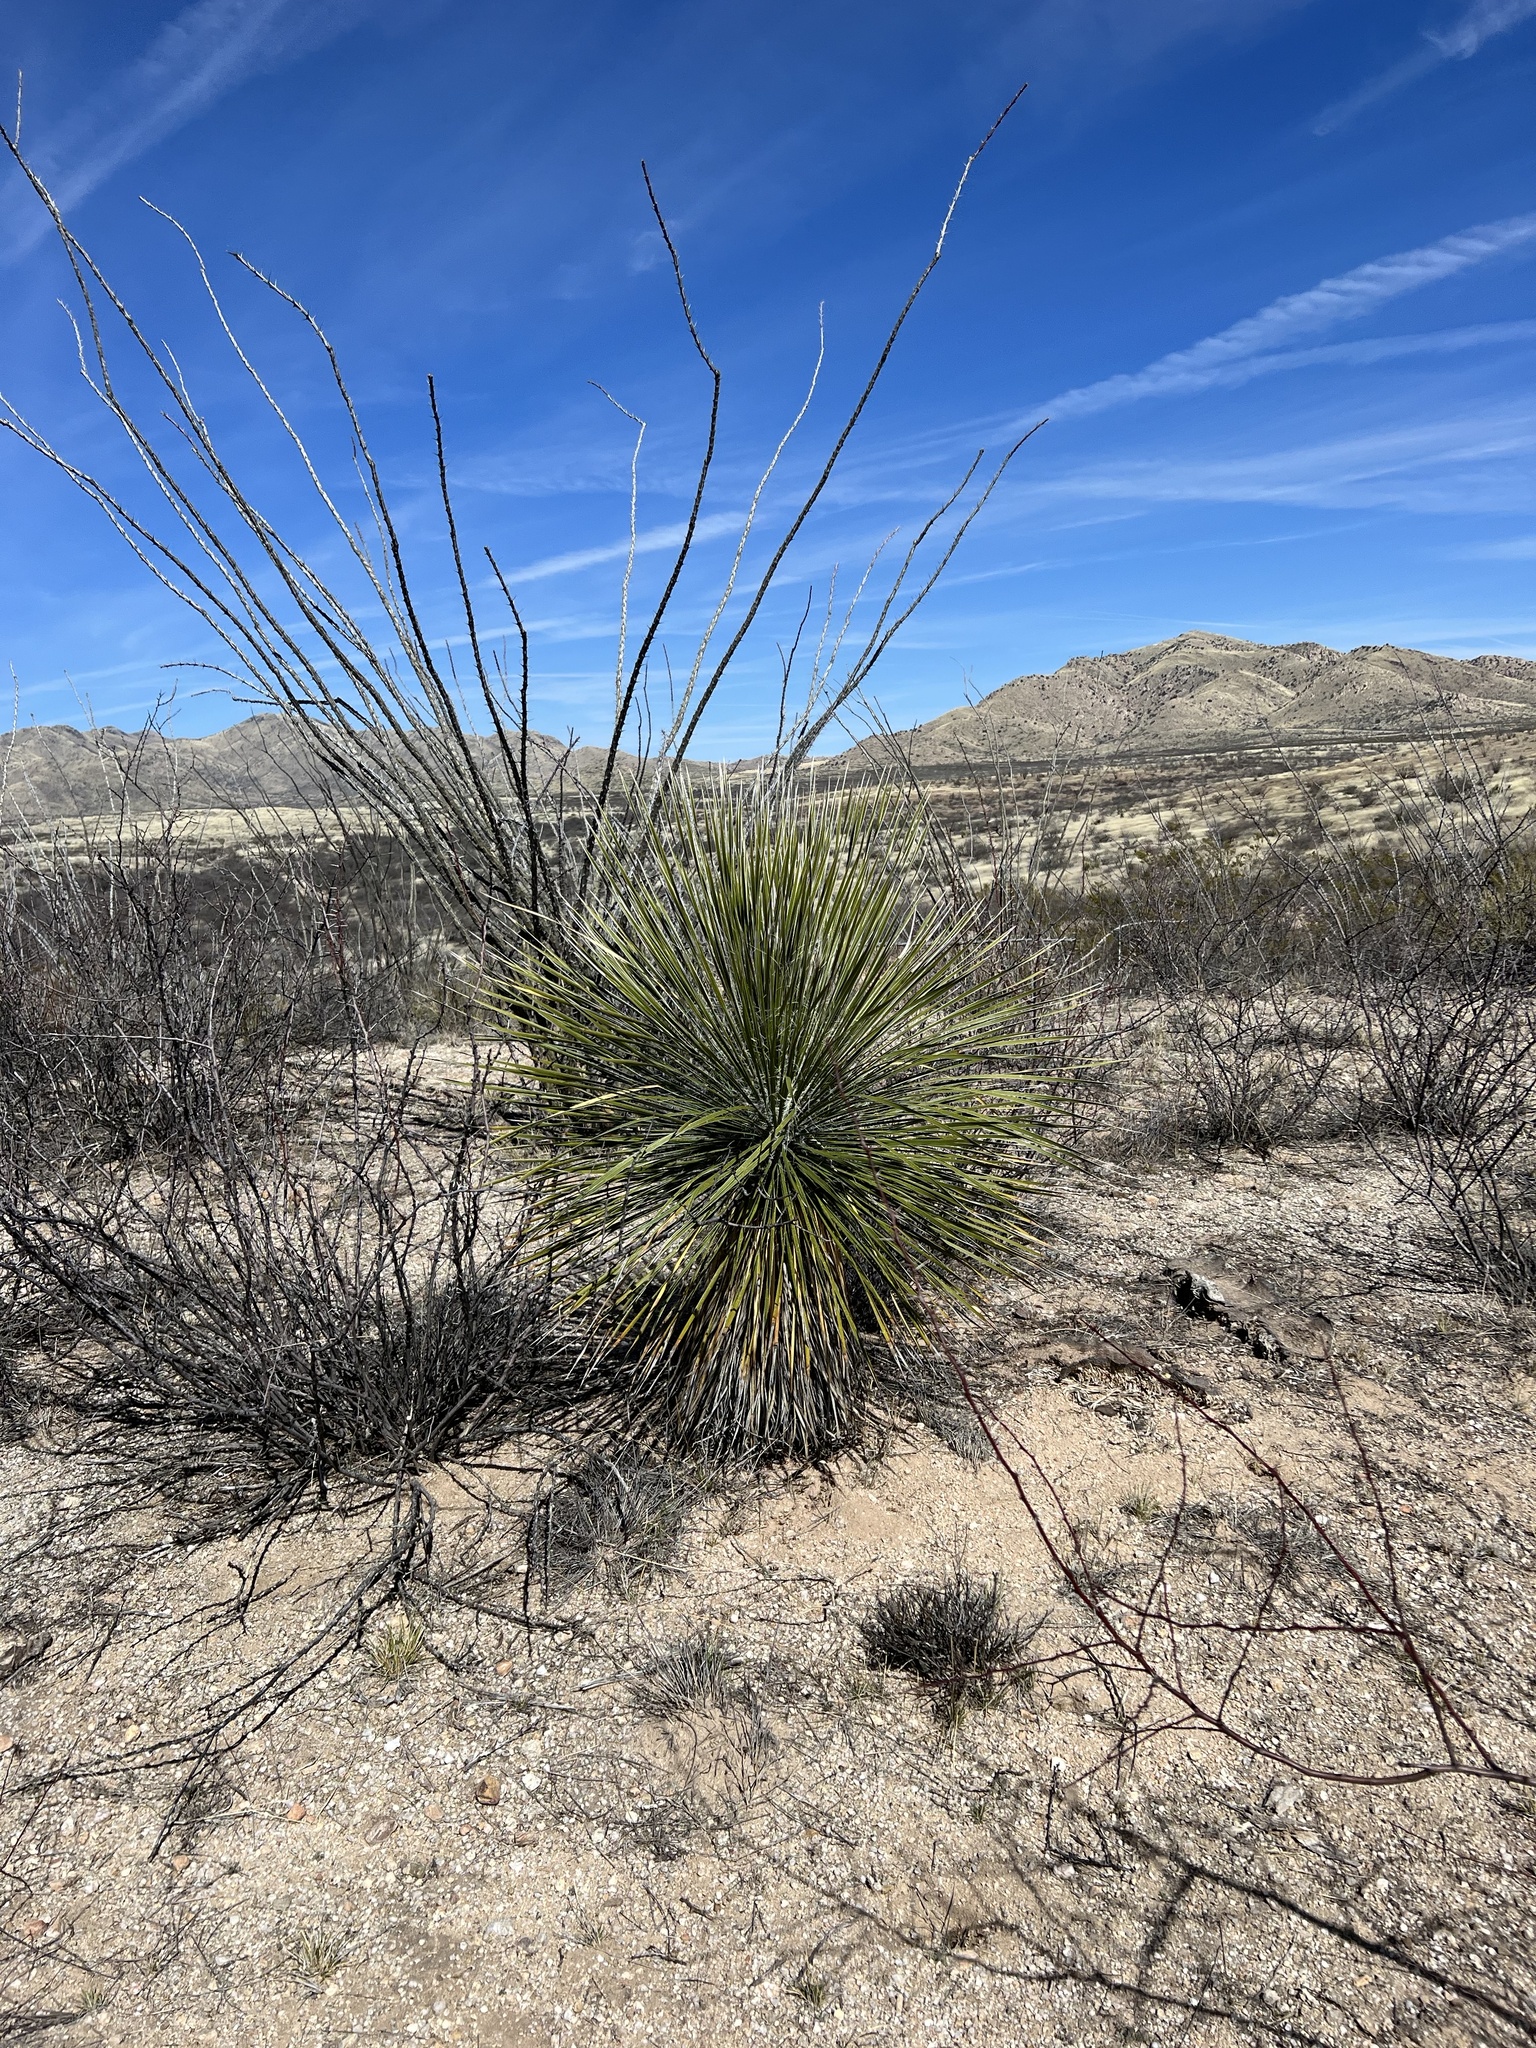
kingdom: Plantae
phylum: Tracheophyta
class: Liliopsida
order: Asparagales
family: Asparagaceae
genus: Yucca
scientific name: Yucca elata
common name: Palmella
